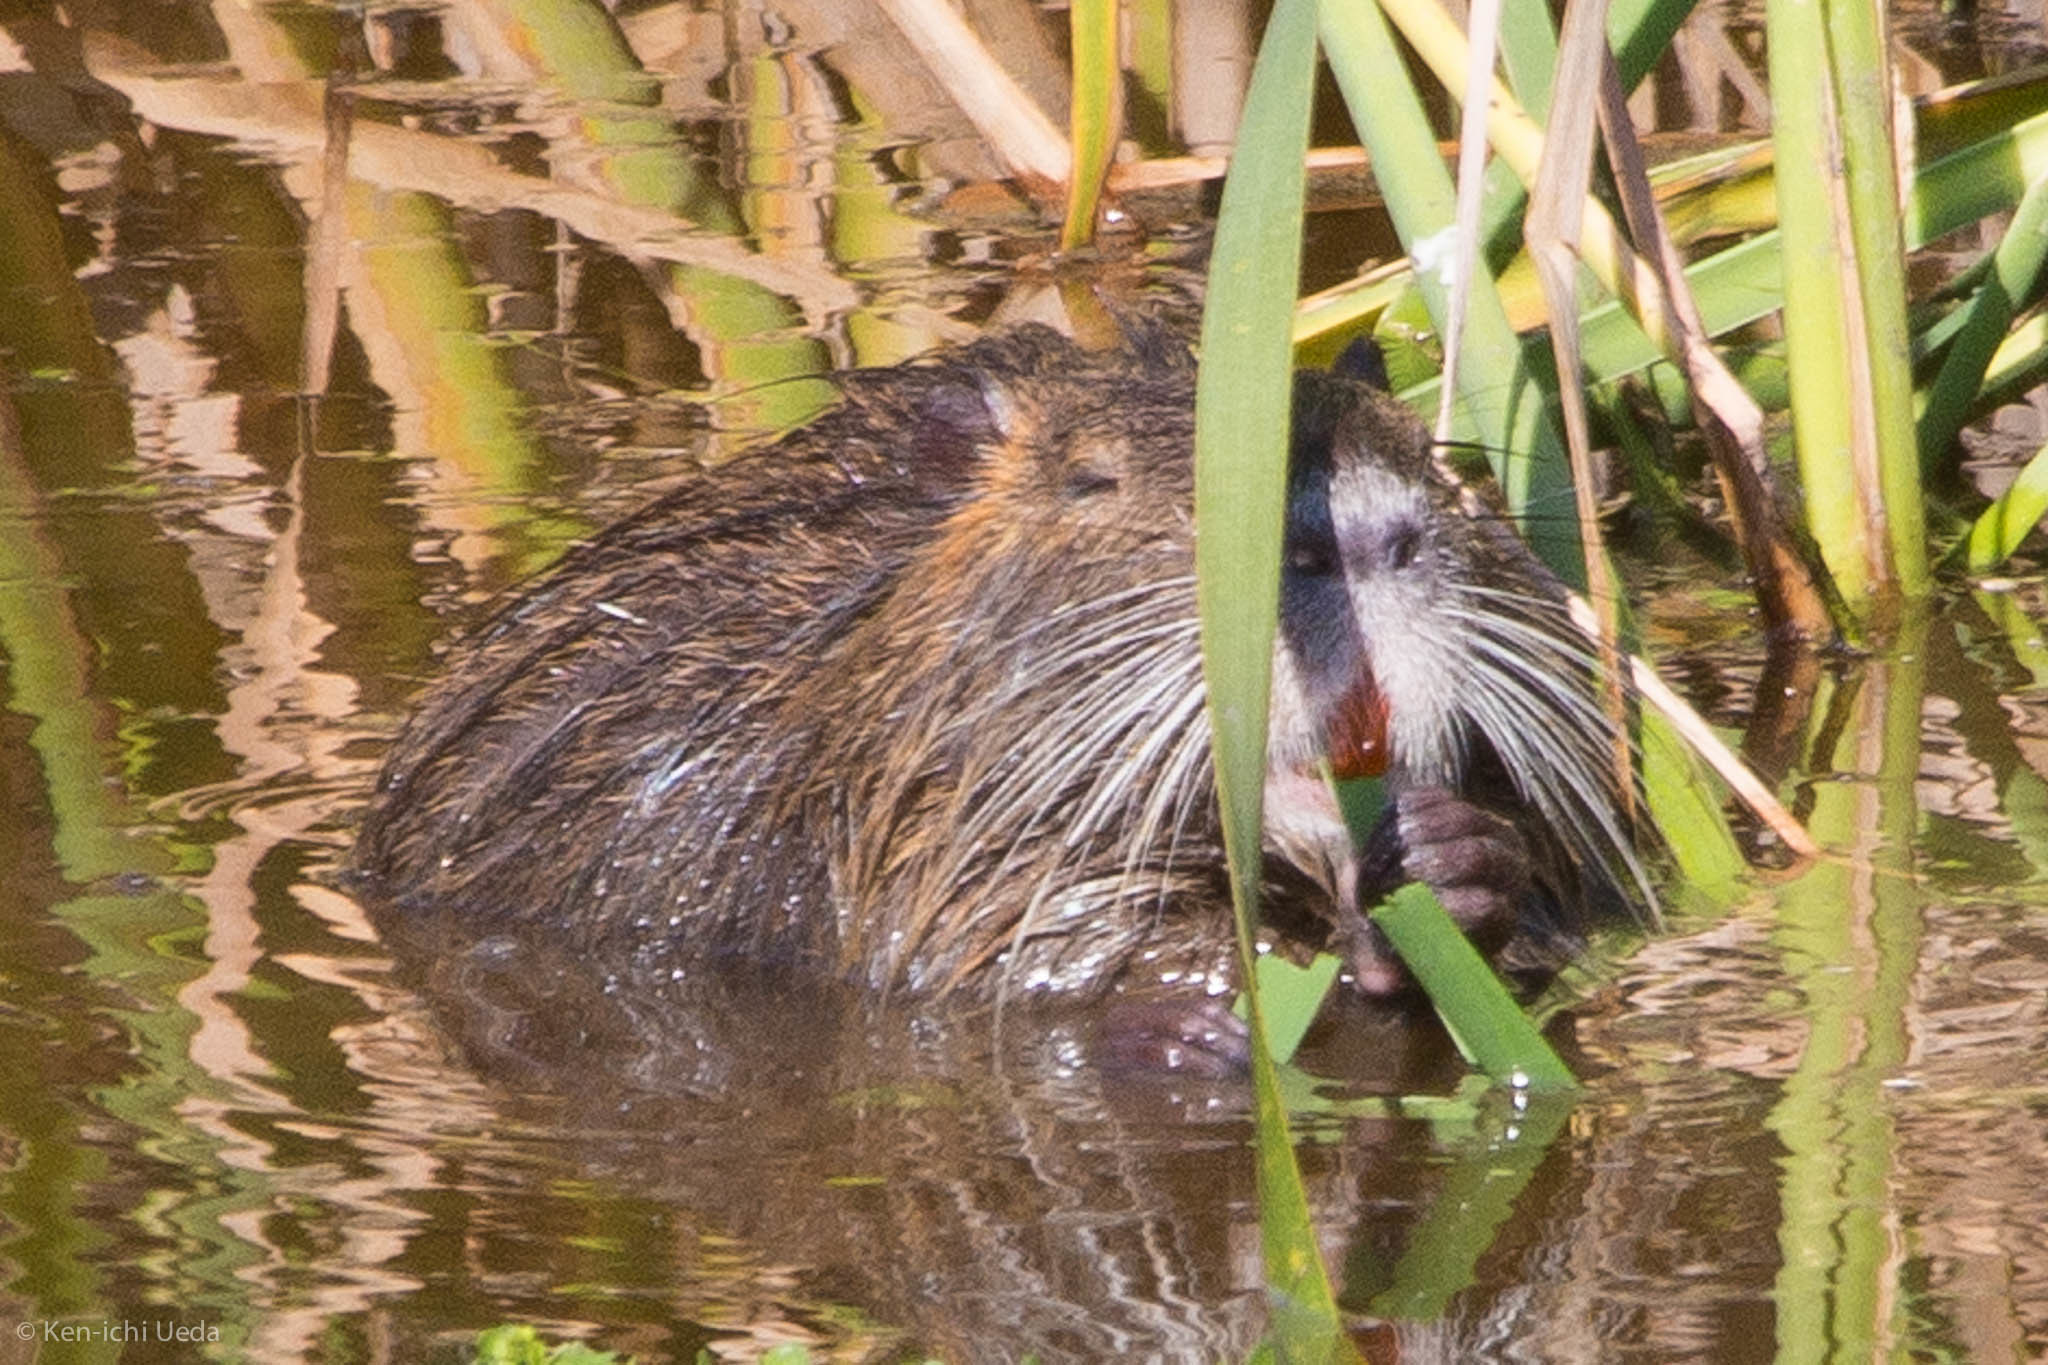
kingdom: Animalia
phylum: Chordata
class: Mammalia
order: Rodentia
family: Myocastoridae
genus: Myocastor
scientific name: Myocastor coypus
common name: Coypu
